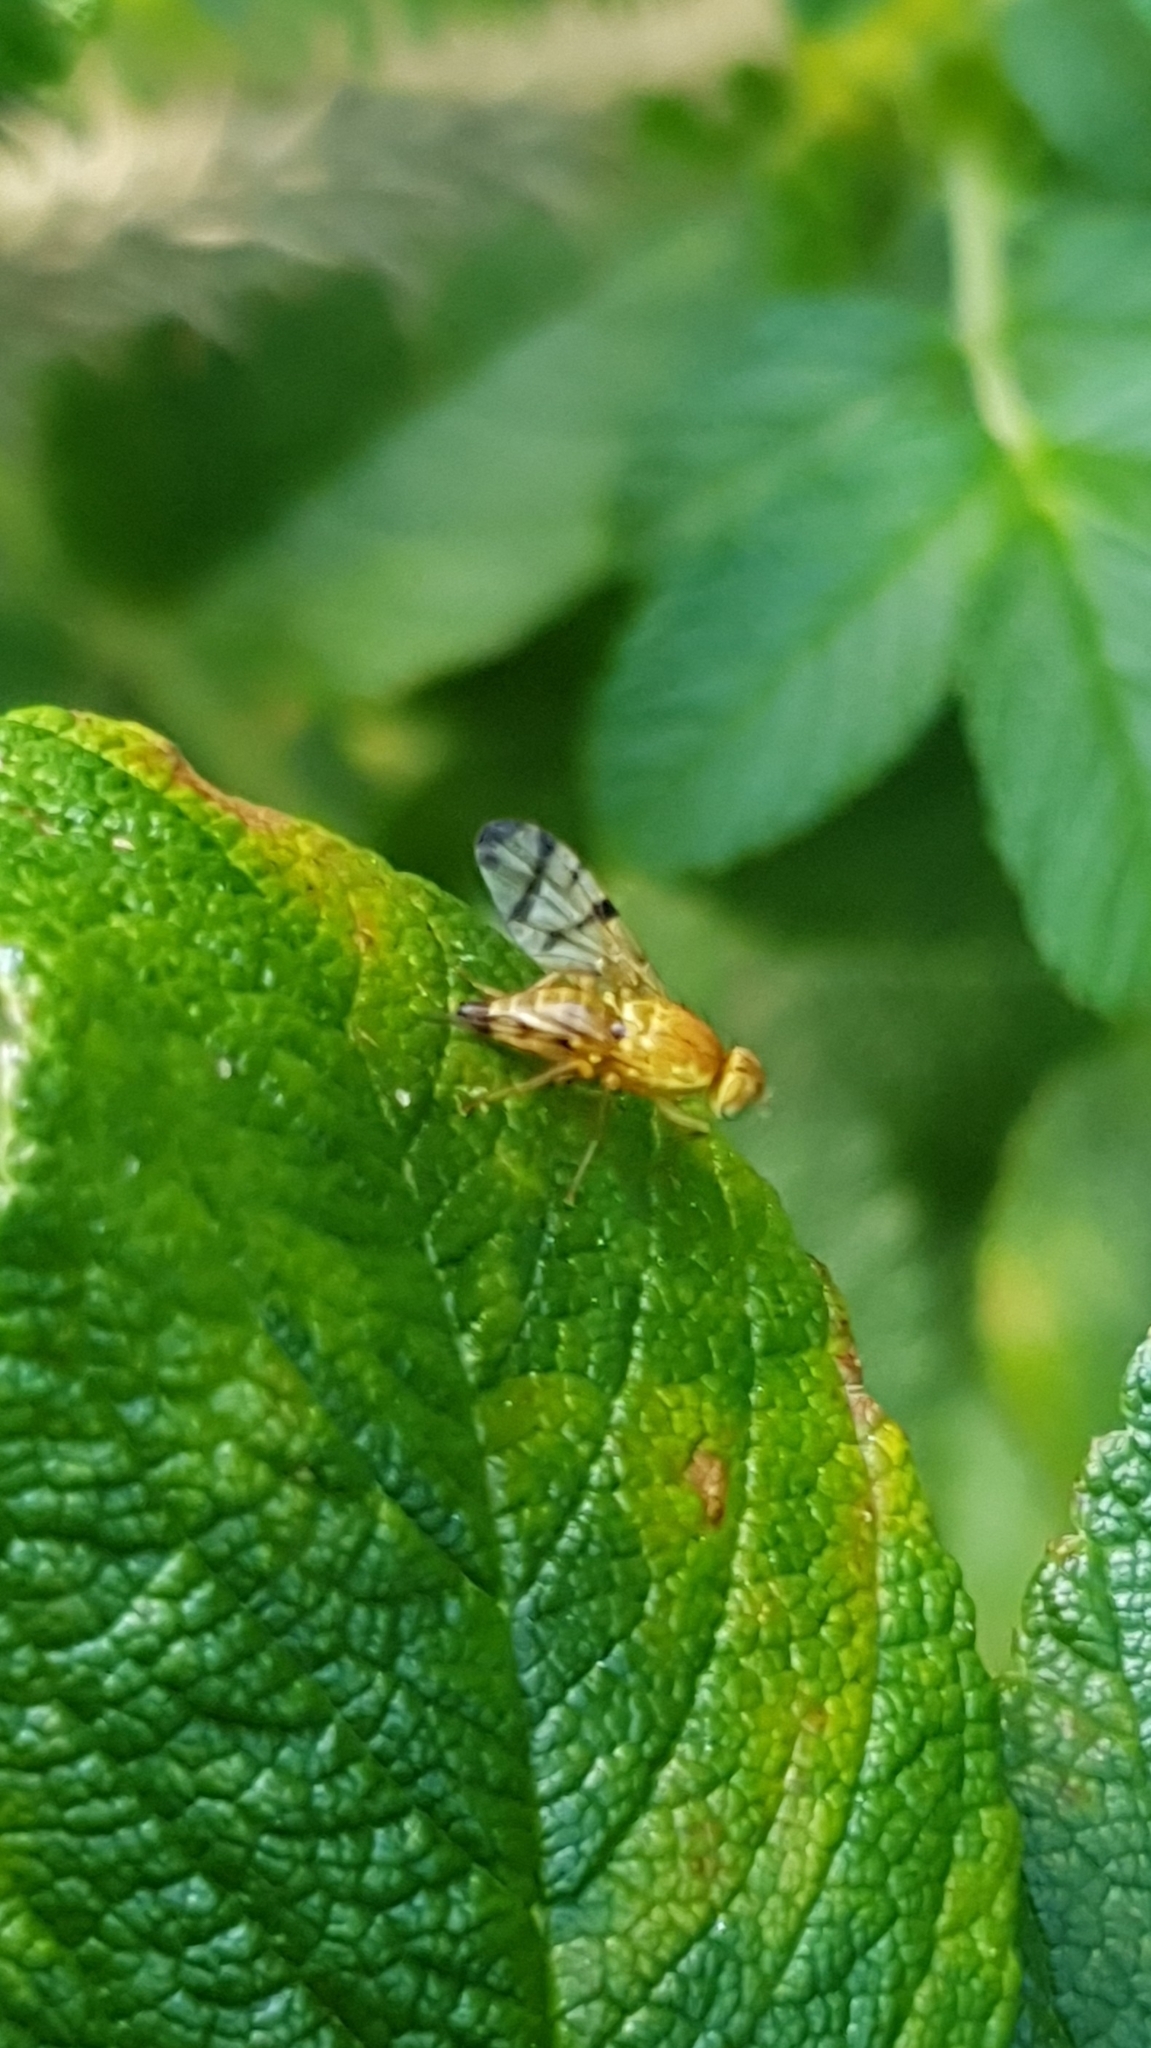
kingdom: Animalia
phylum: Arthropoda
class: Insecta
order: Diptera
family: Tephritidae
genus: Rhagoletis
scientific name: Rhagoletis alternata
